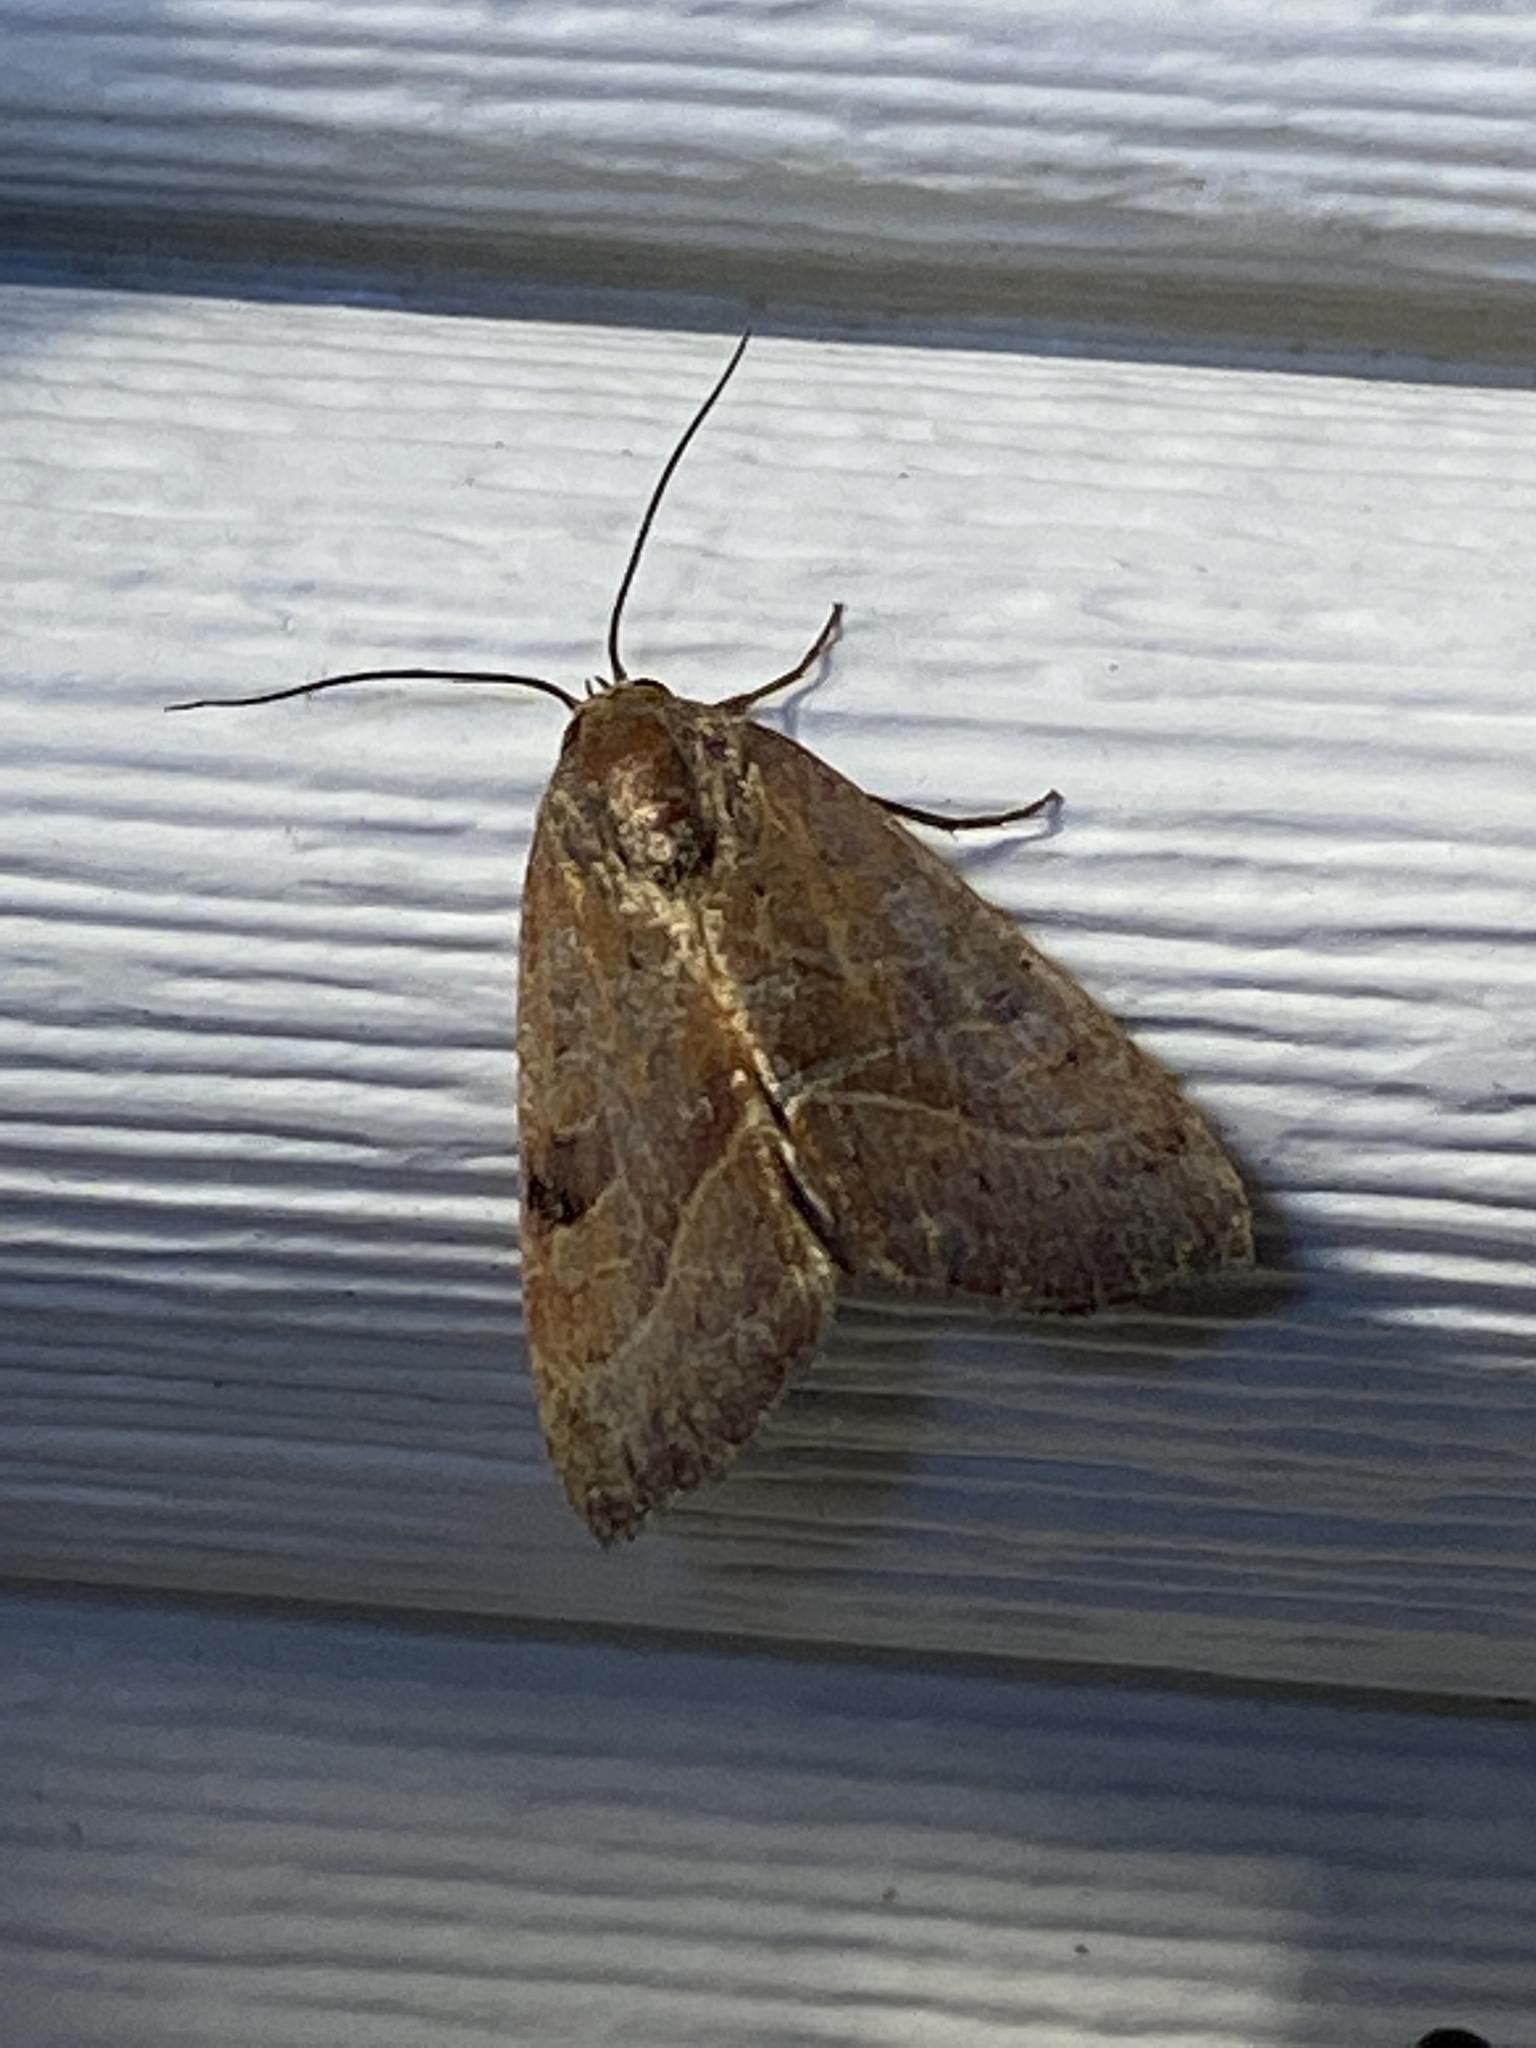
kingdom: Animalia
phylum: Arthropoda
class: Insecta
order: Lepidoptera
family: Noctuidae
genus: Galgula
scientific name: Galgula partita
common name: Wedgeling
